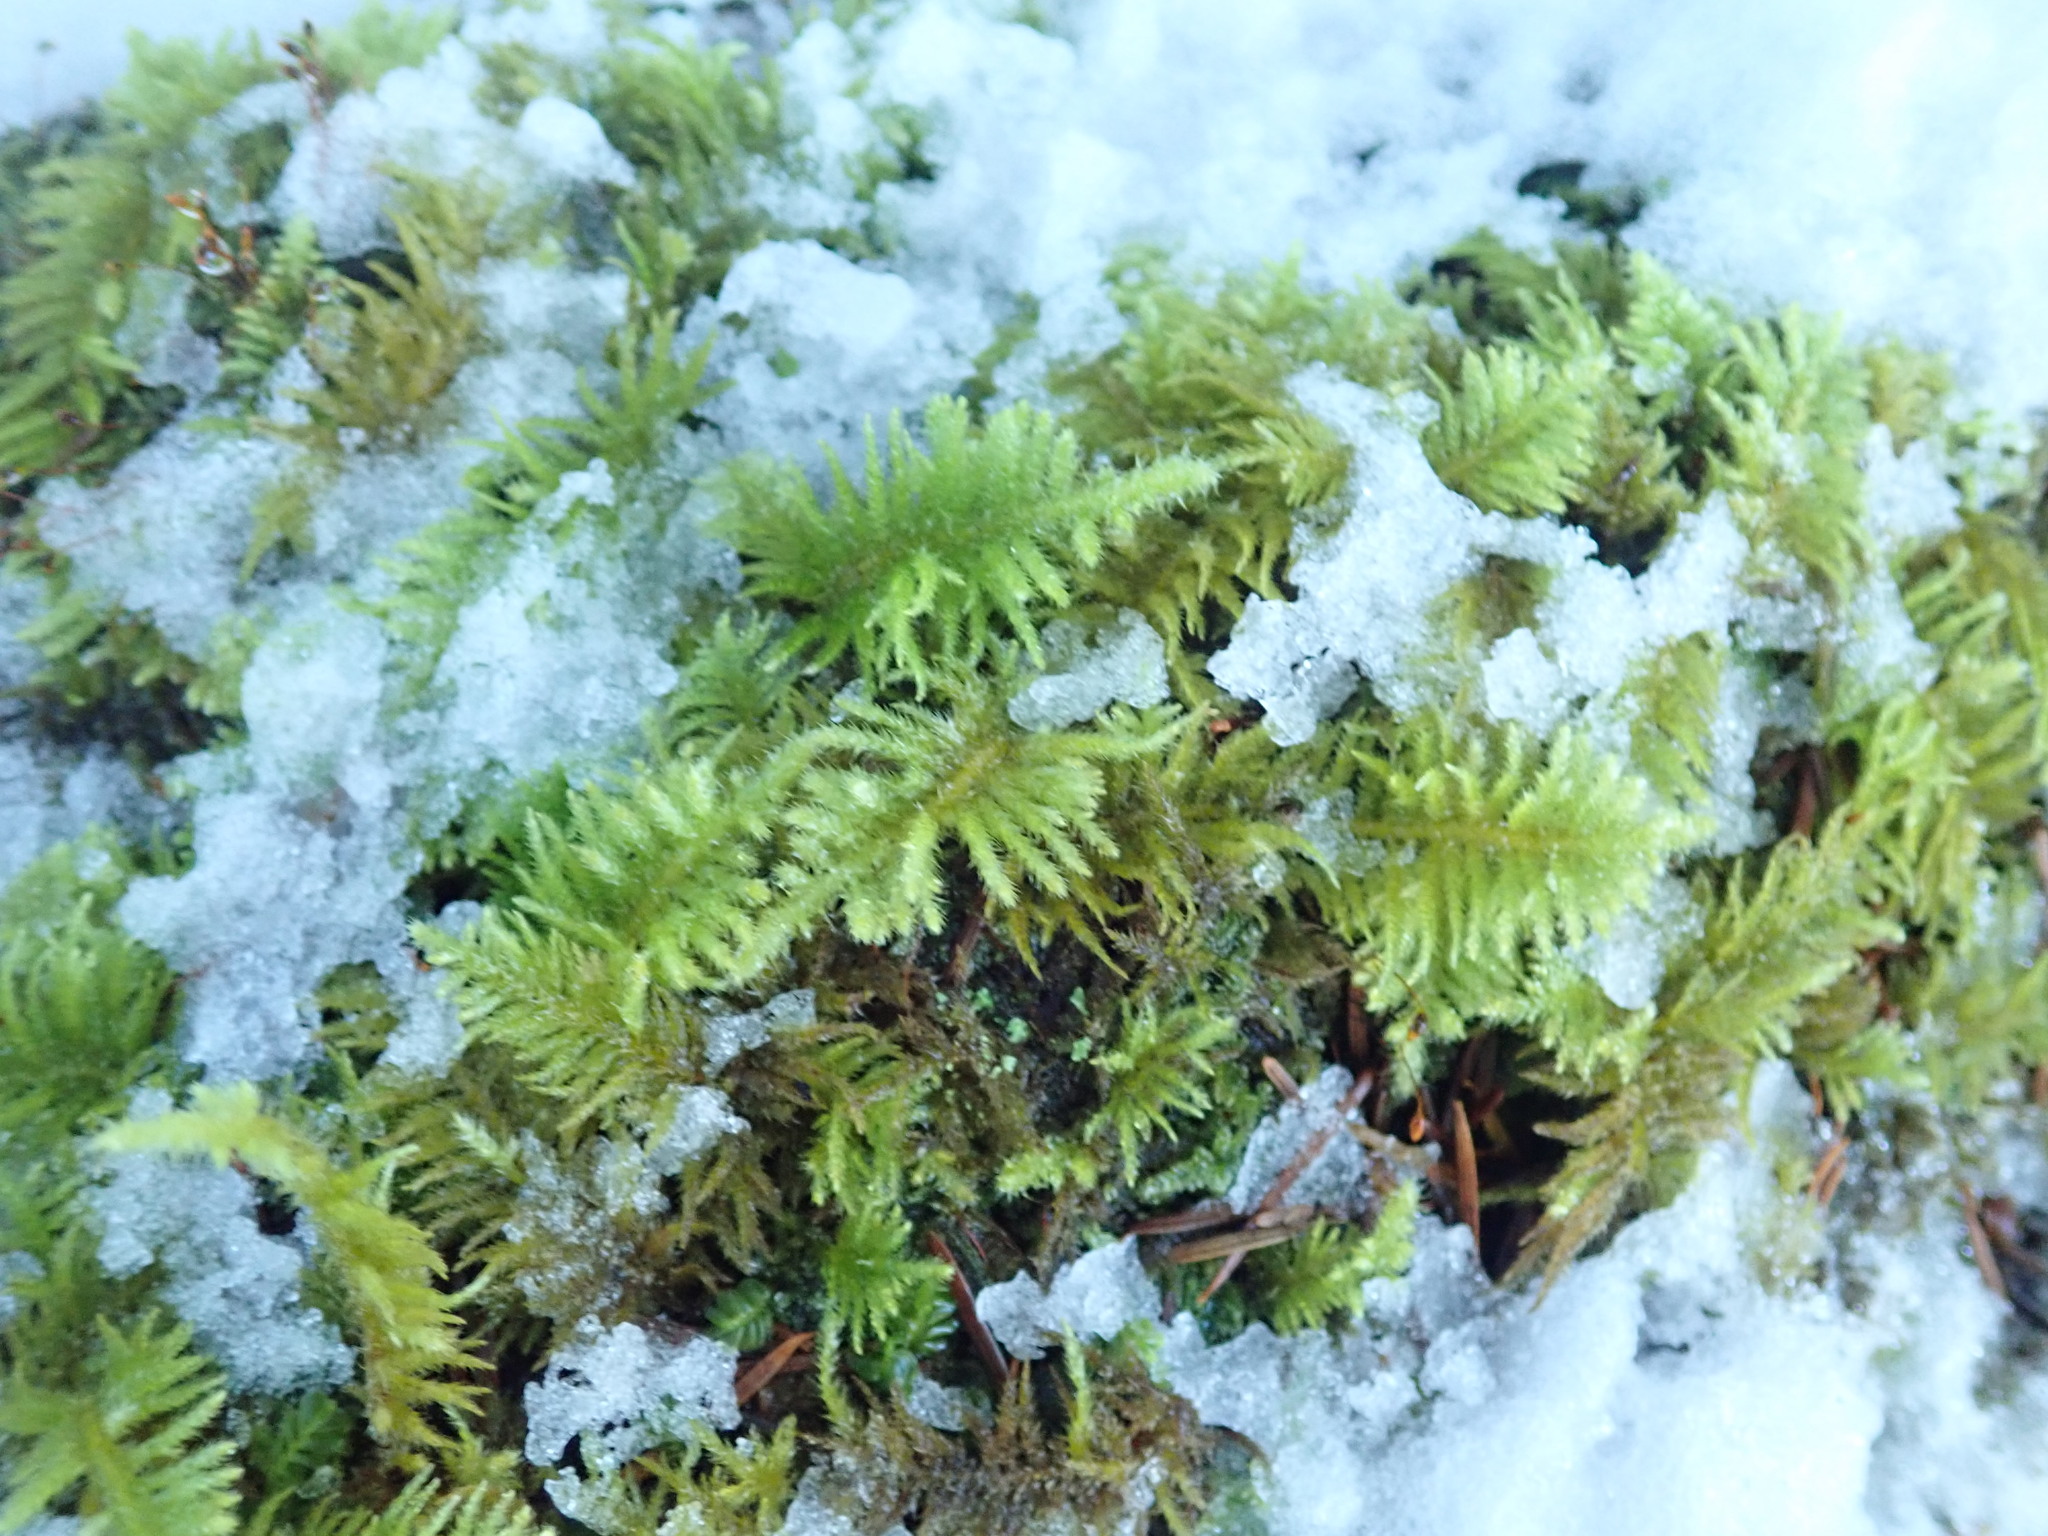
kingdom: Plantae
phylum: Bryophyta
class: Bryopsida
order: Hypnales
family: Brachytheciaceae
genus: Kindbergia
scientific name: Kindbergia oregana
